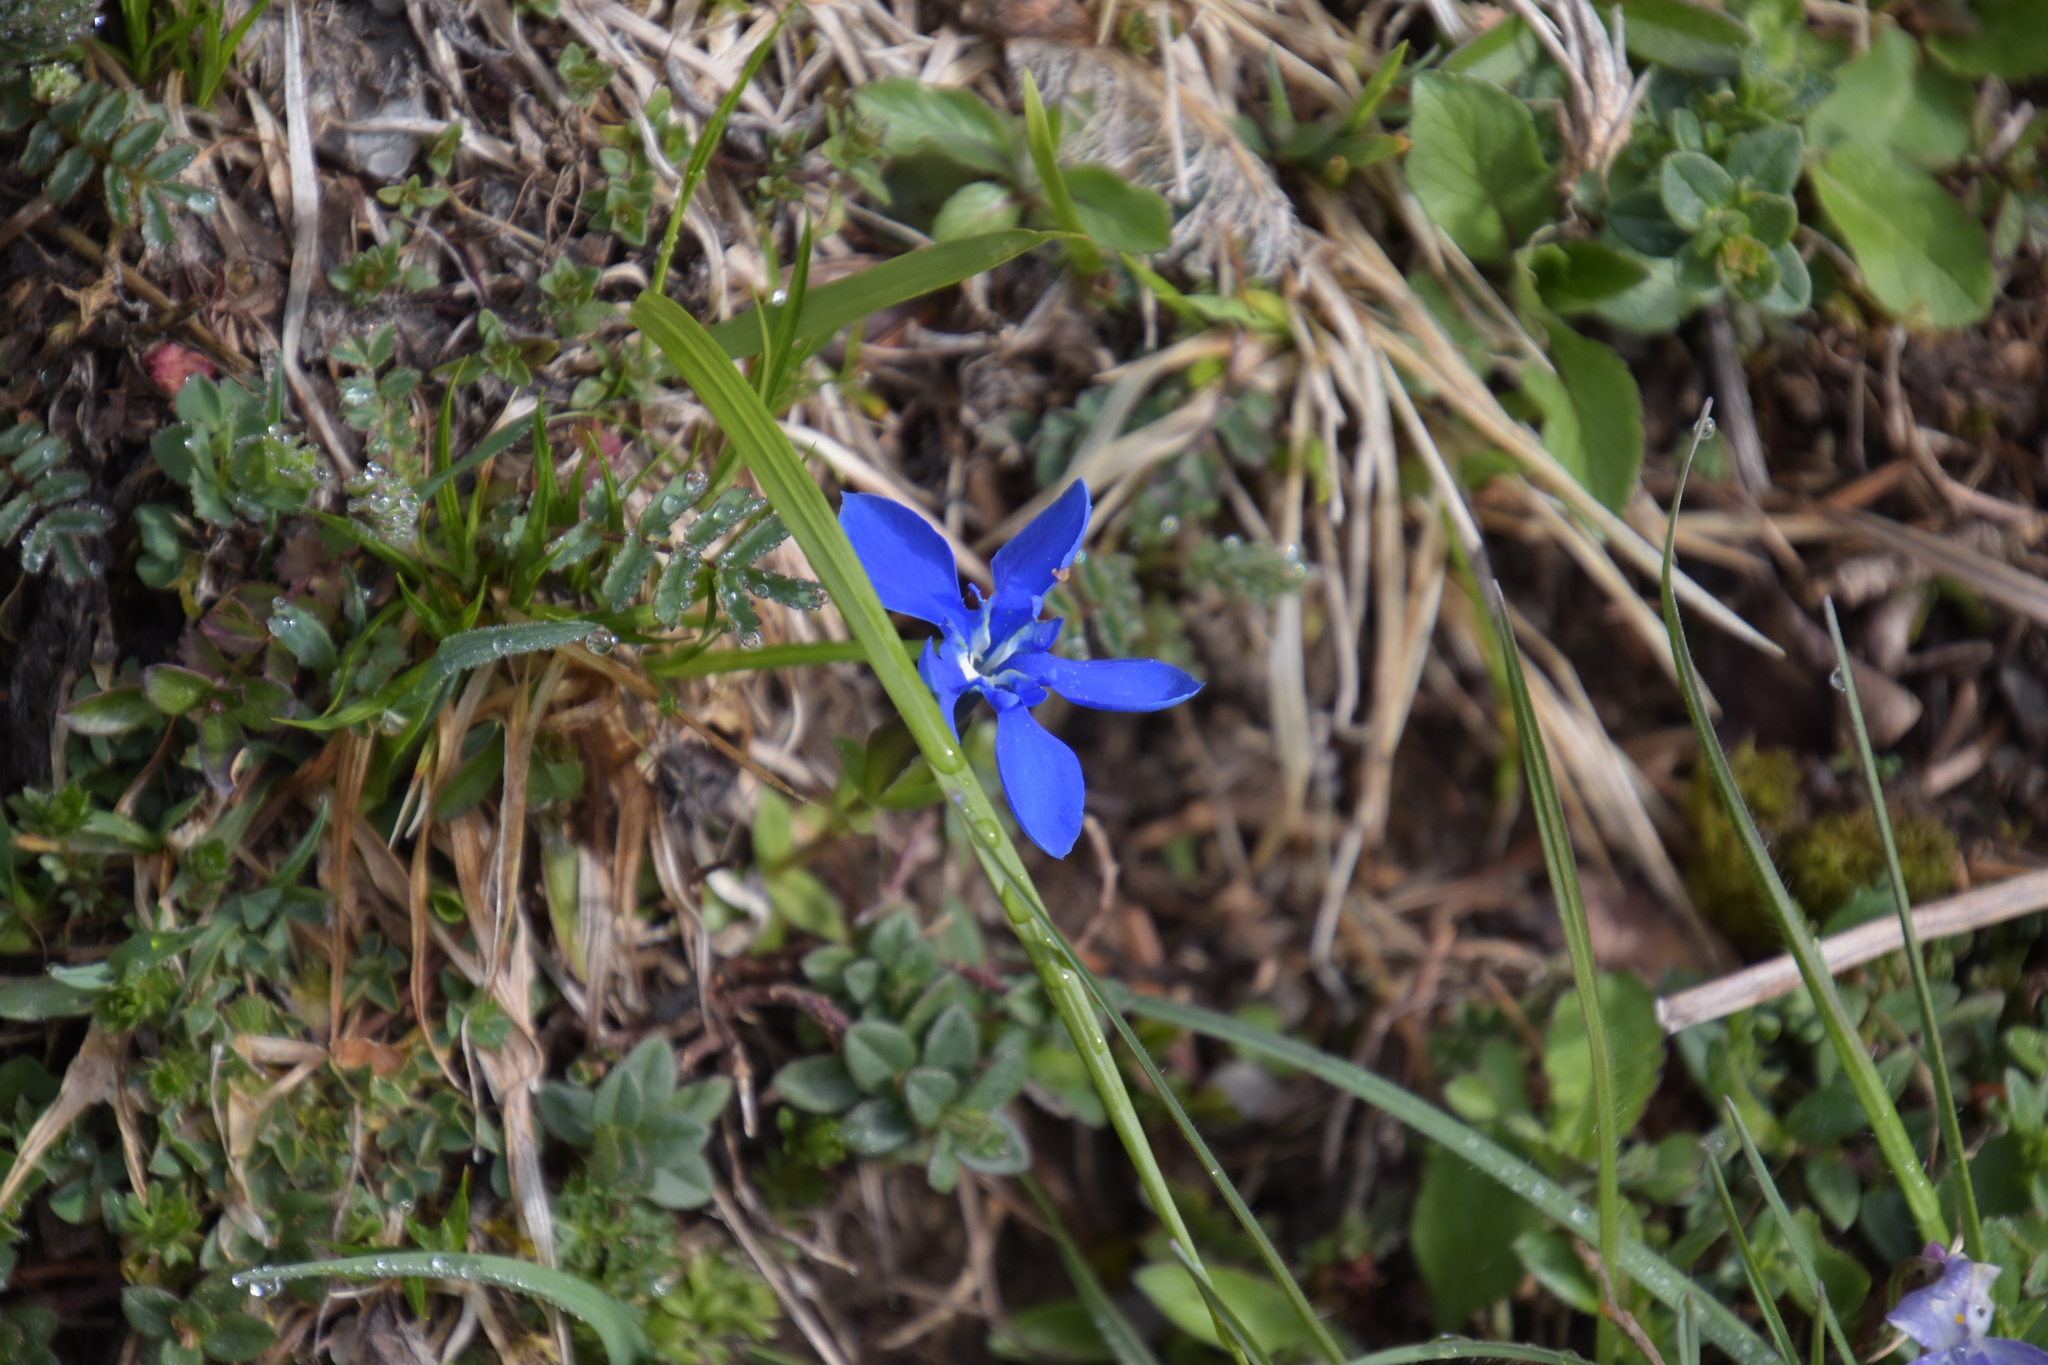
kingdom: Plantae
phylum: Tracheophyta
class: Magnoliopsida
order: Gentianales
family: Gentianaceae
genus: Gentiana
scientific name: Gentiana verna
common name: Spring gentian
